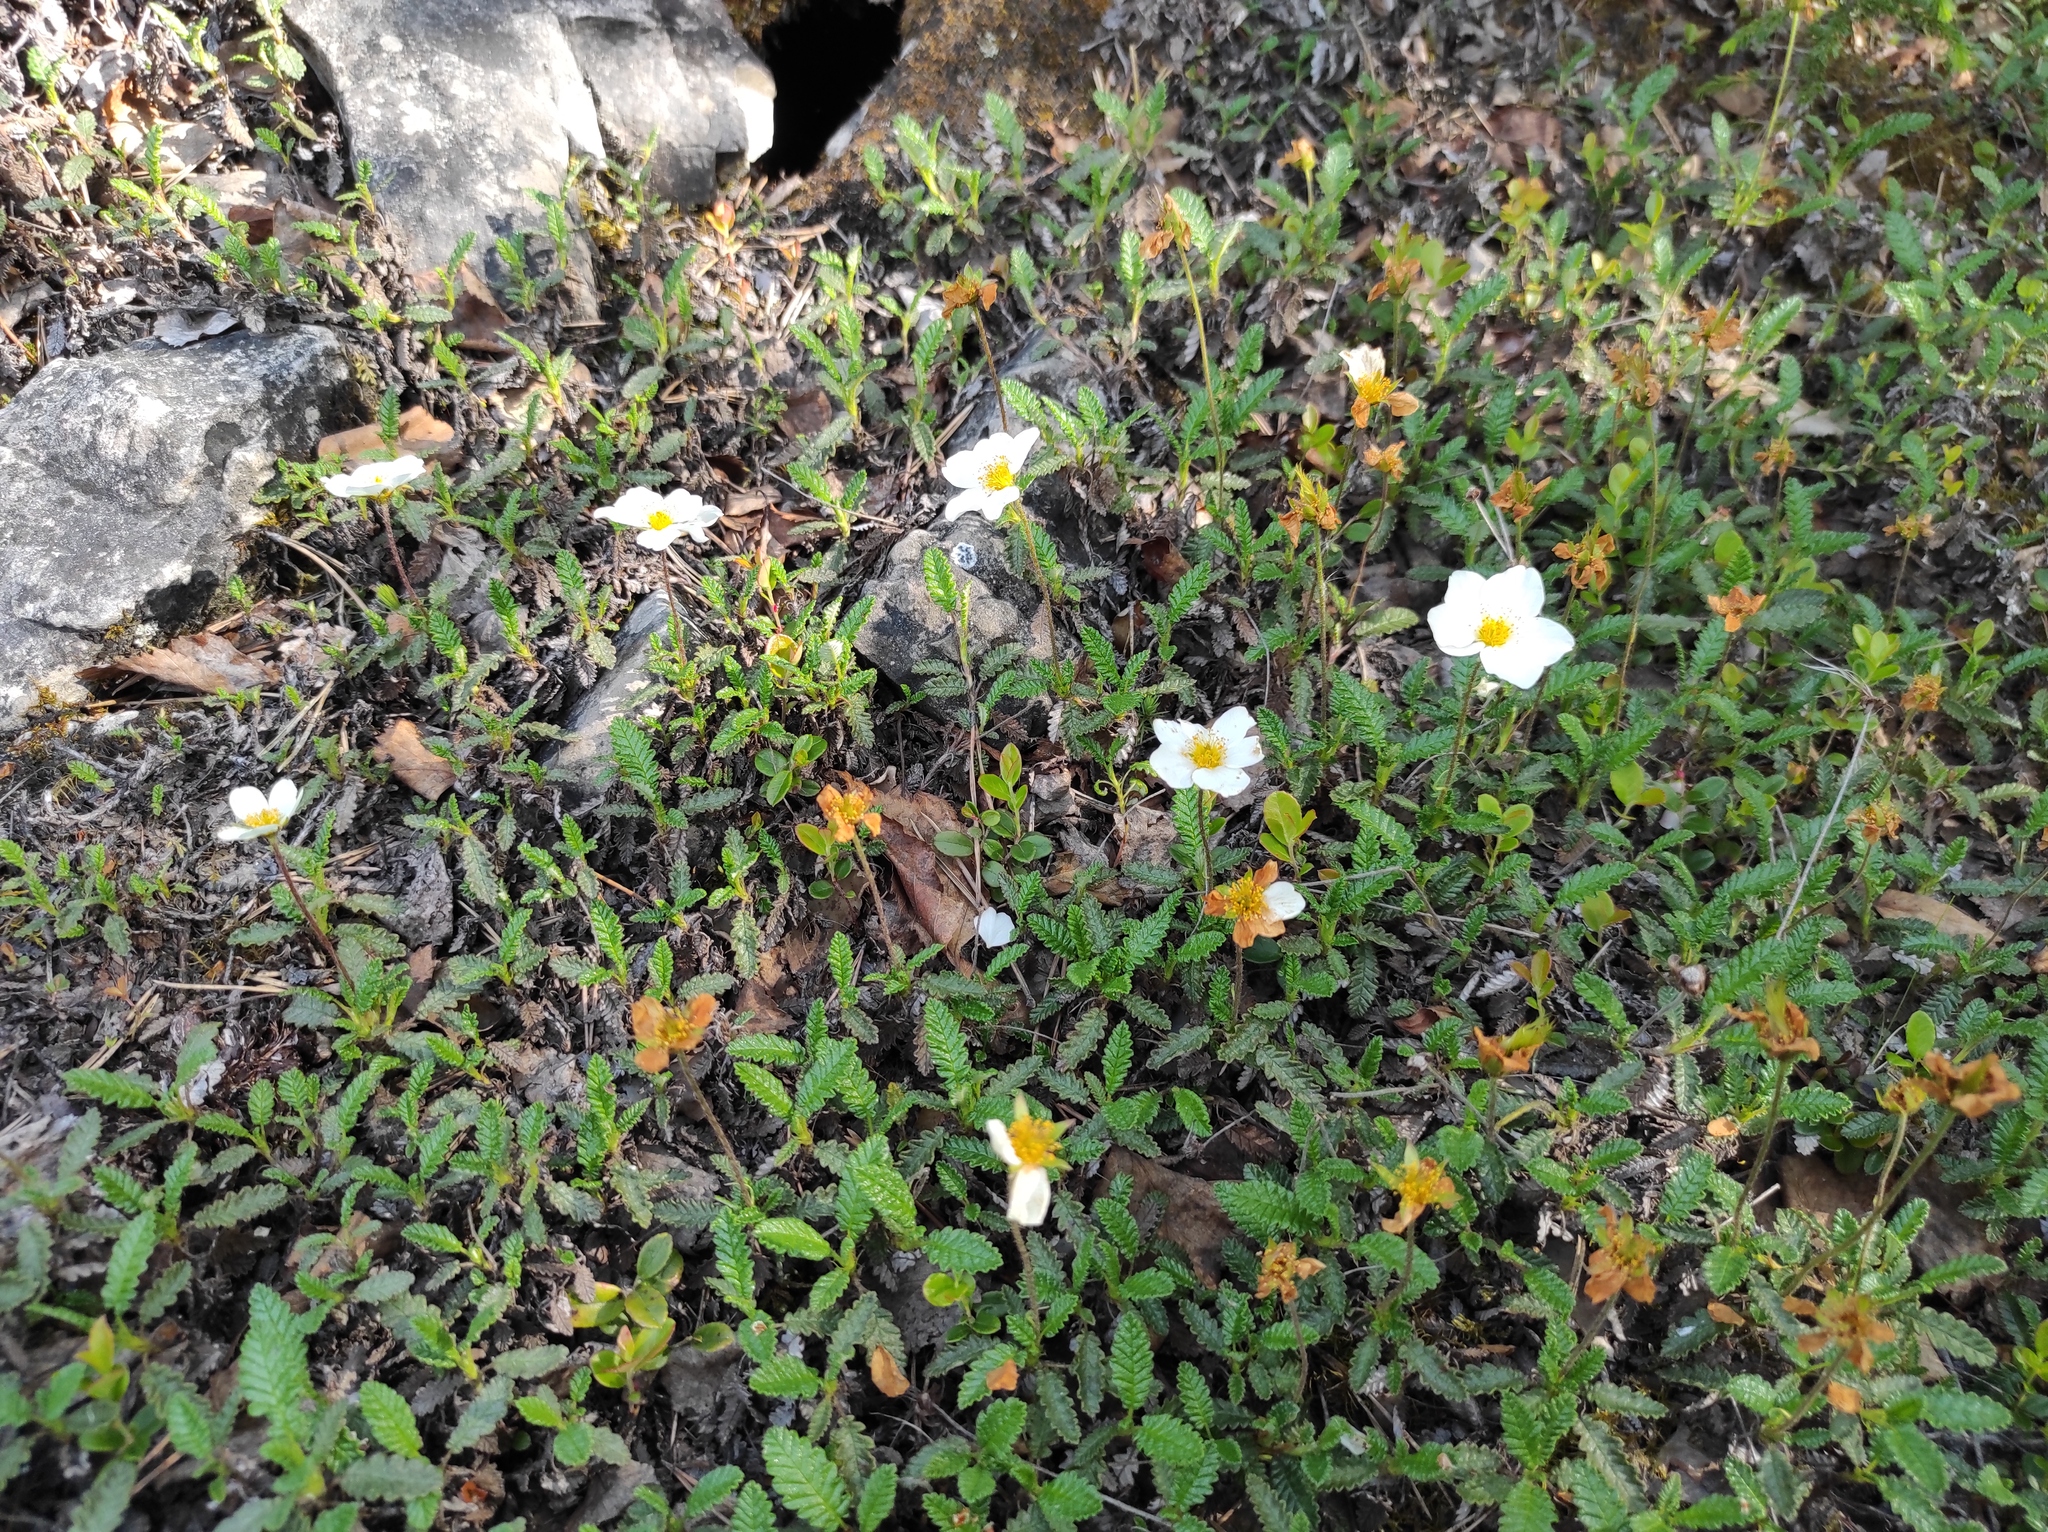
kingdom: Plantae
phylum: Tracheophyta
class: Magnoliopsida
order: Rosales
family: Rosaceae
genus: Dryas
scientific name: Dryas octopetala
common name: Eight-petal mountain-avens
